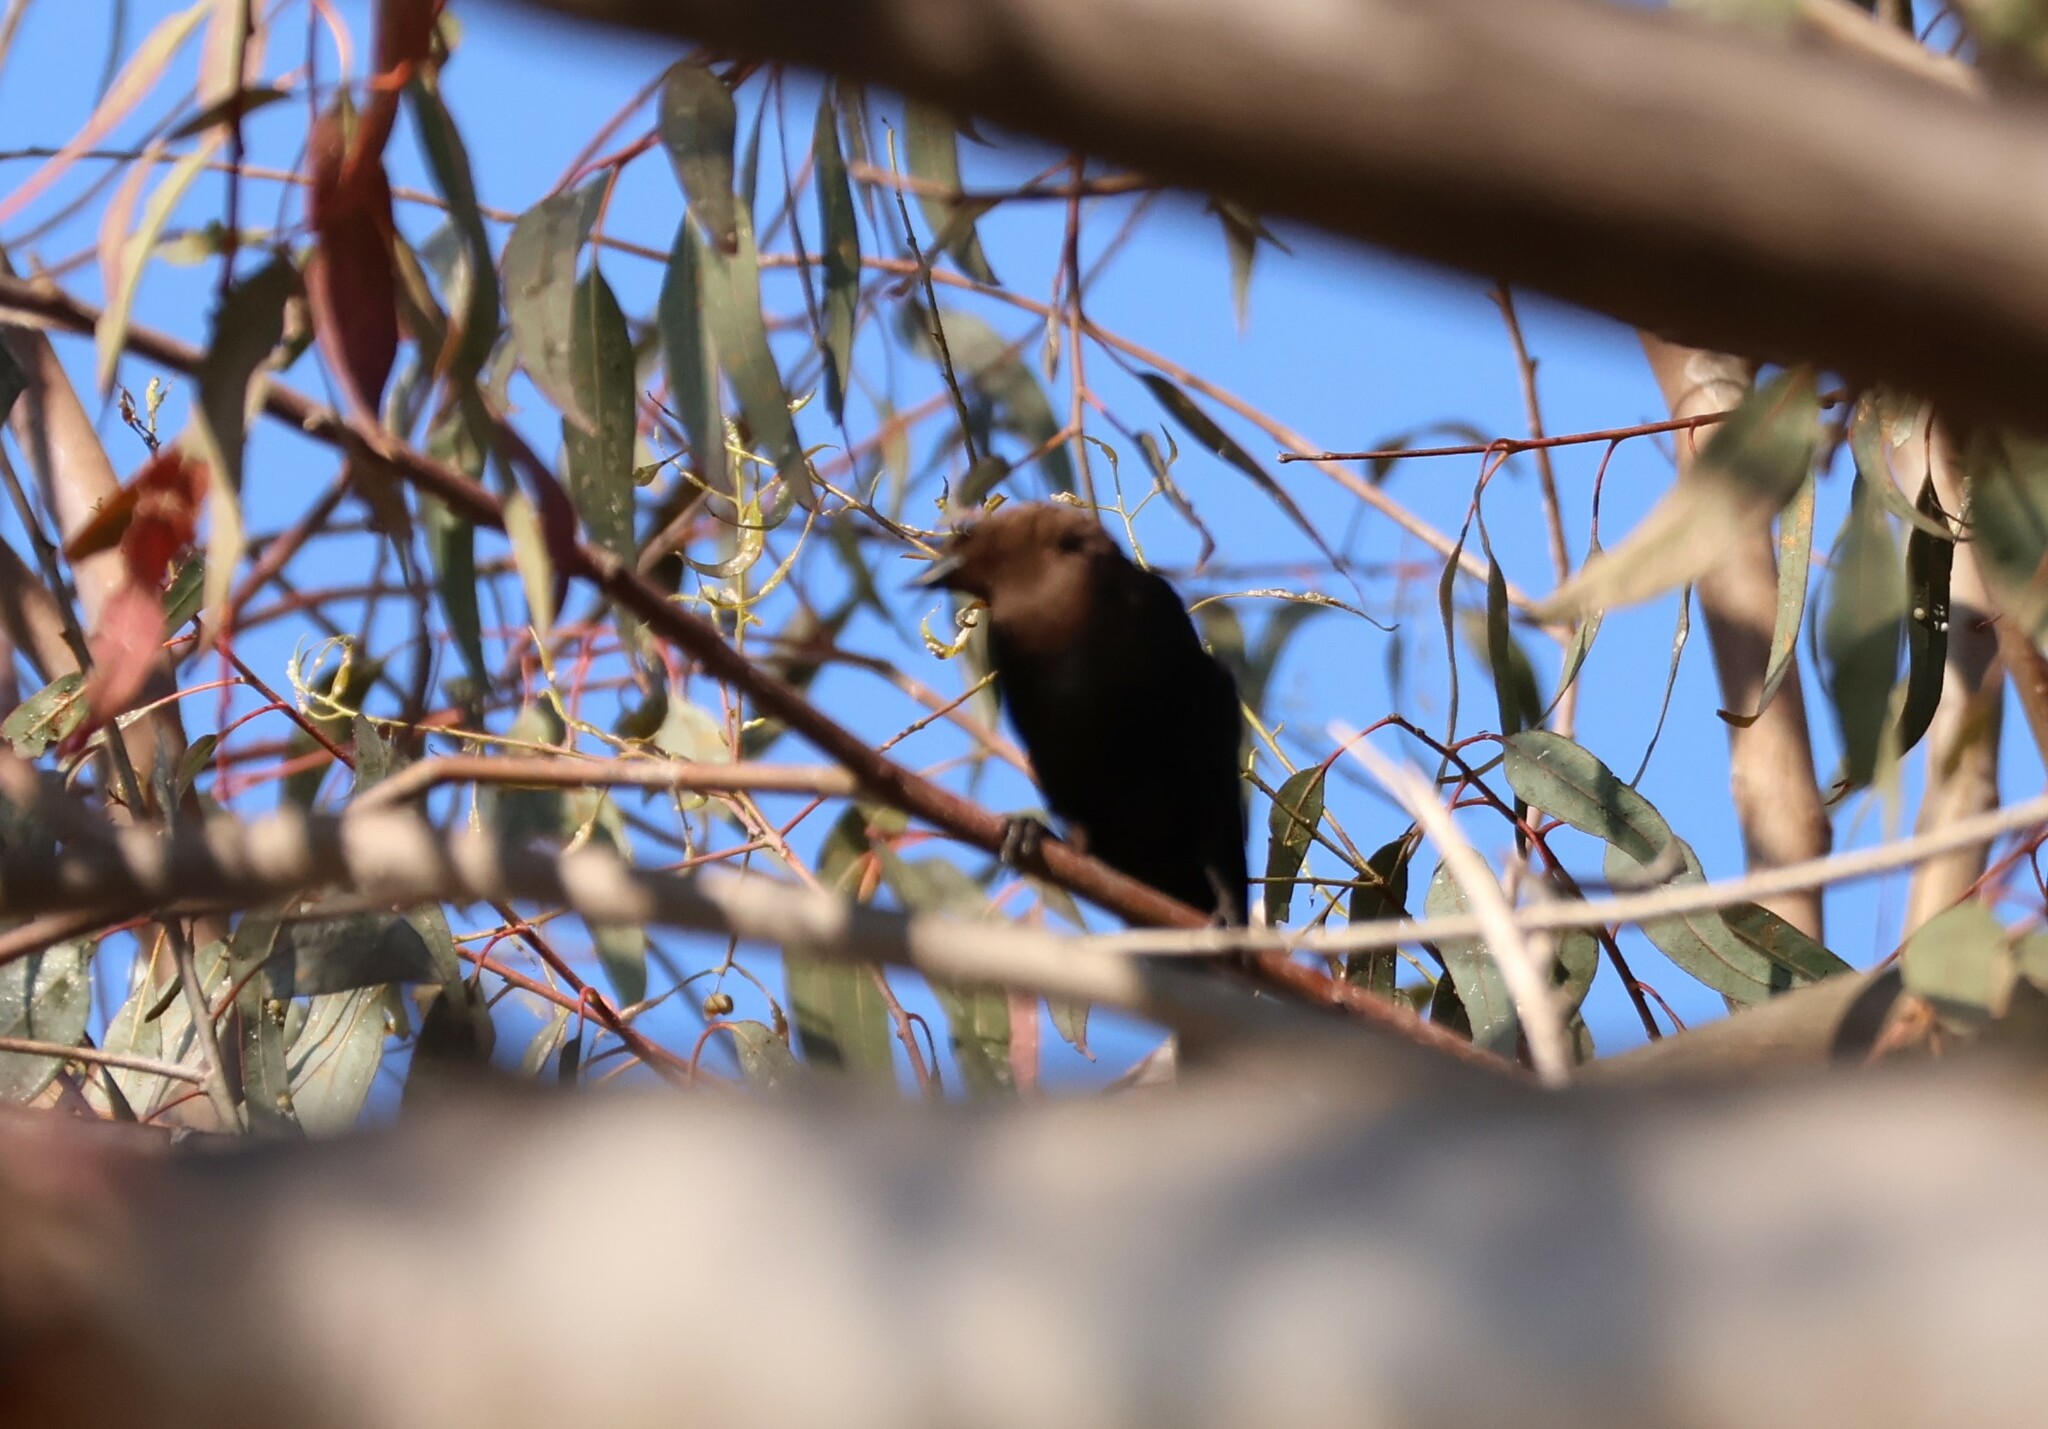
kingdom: Animalia
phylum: Chordata
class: Aves
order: Passeriformes
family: Icteridae
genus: Molothrus
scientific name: Molothrus ater
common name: Brown-headed cowbird
